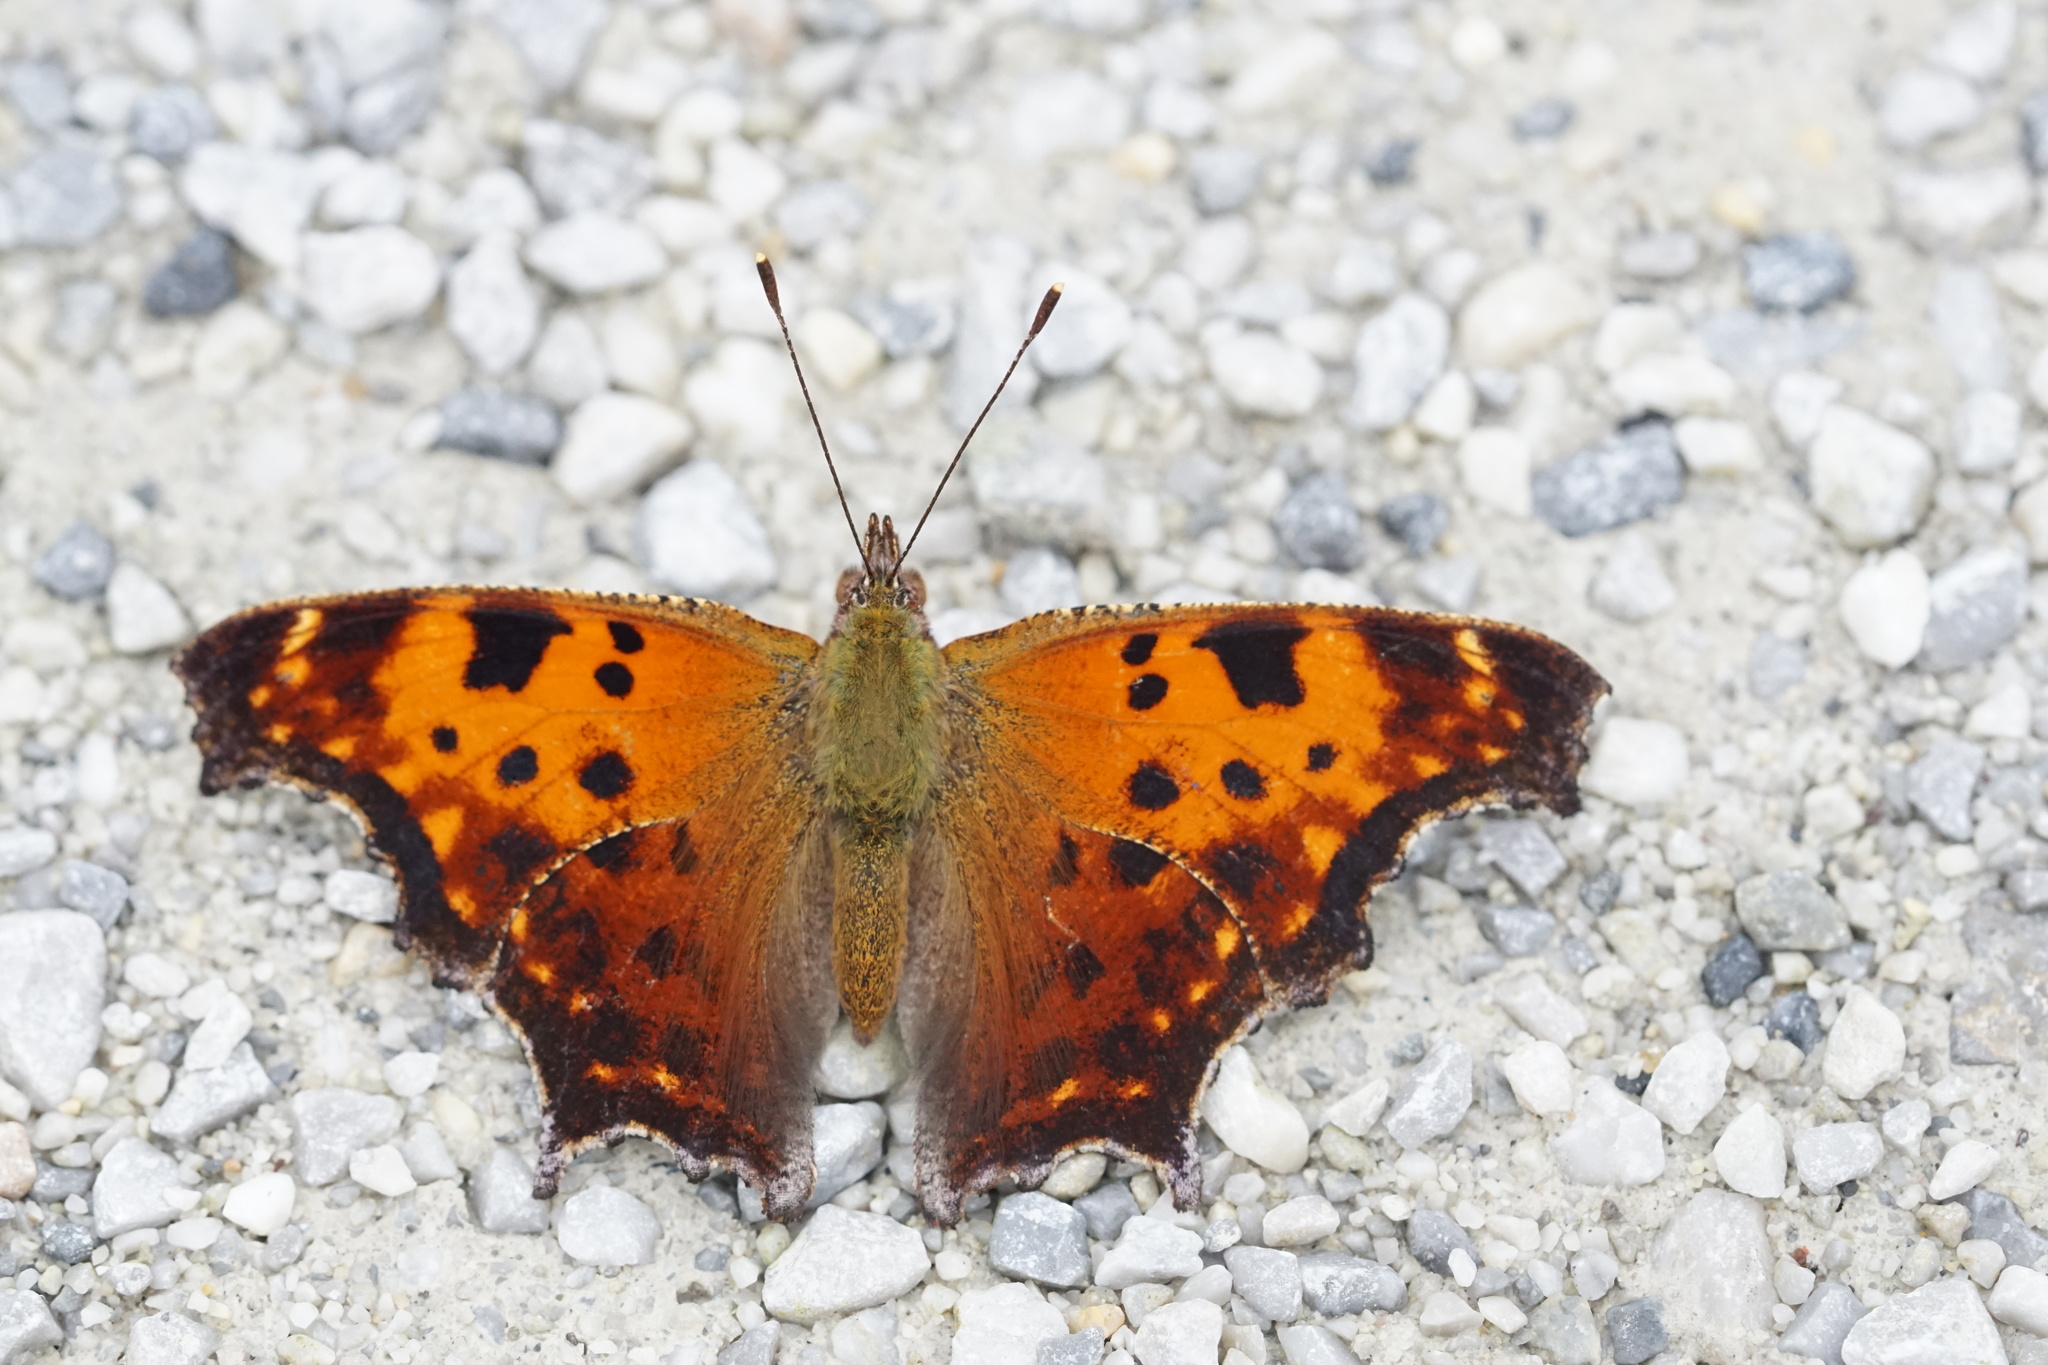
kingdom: Animalia
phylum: Arthropoda
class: Insecta
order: Lepidoptera
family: Nymphalidae
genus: Polygonia
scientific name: Polygonia comma
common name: Eastern comma
